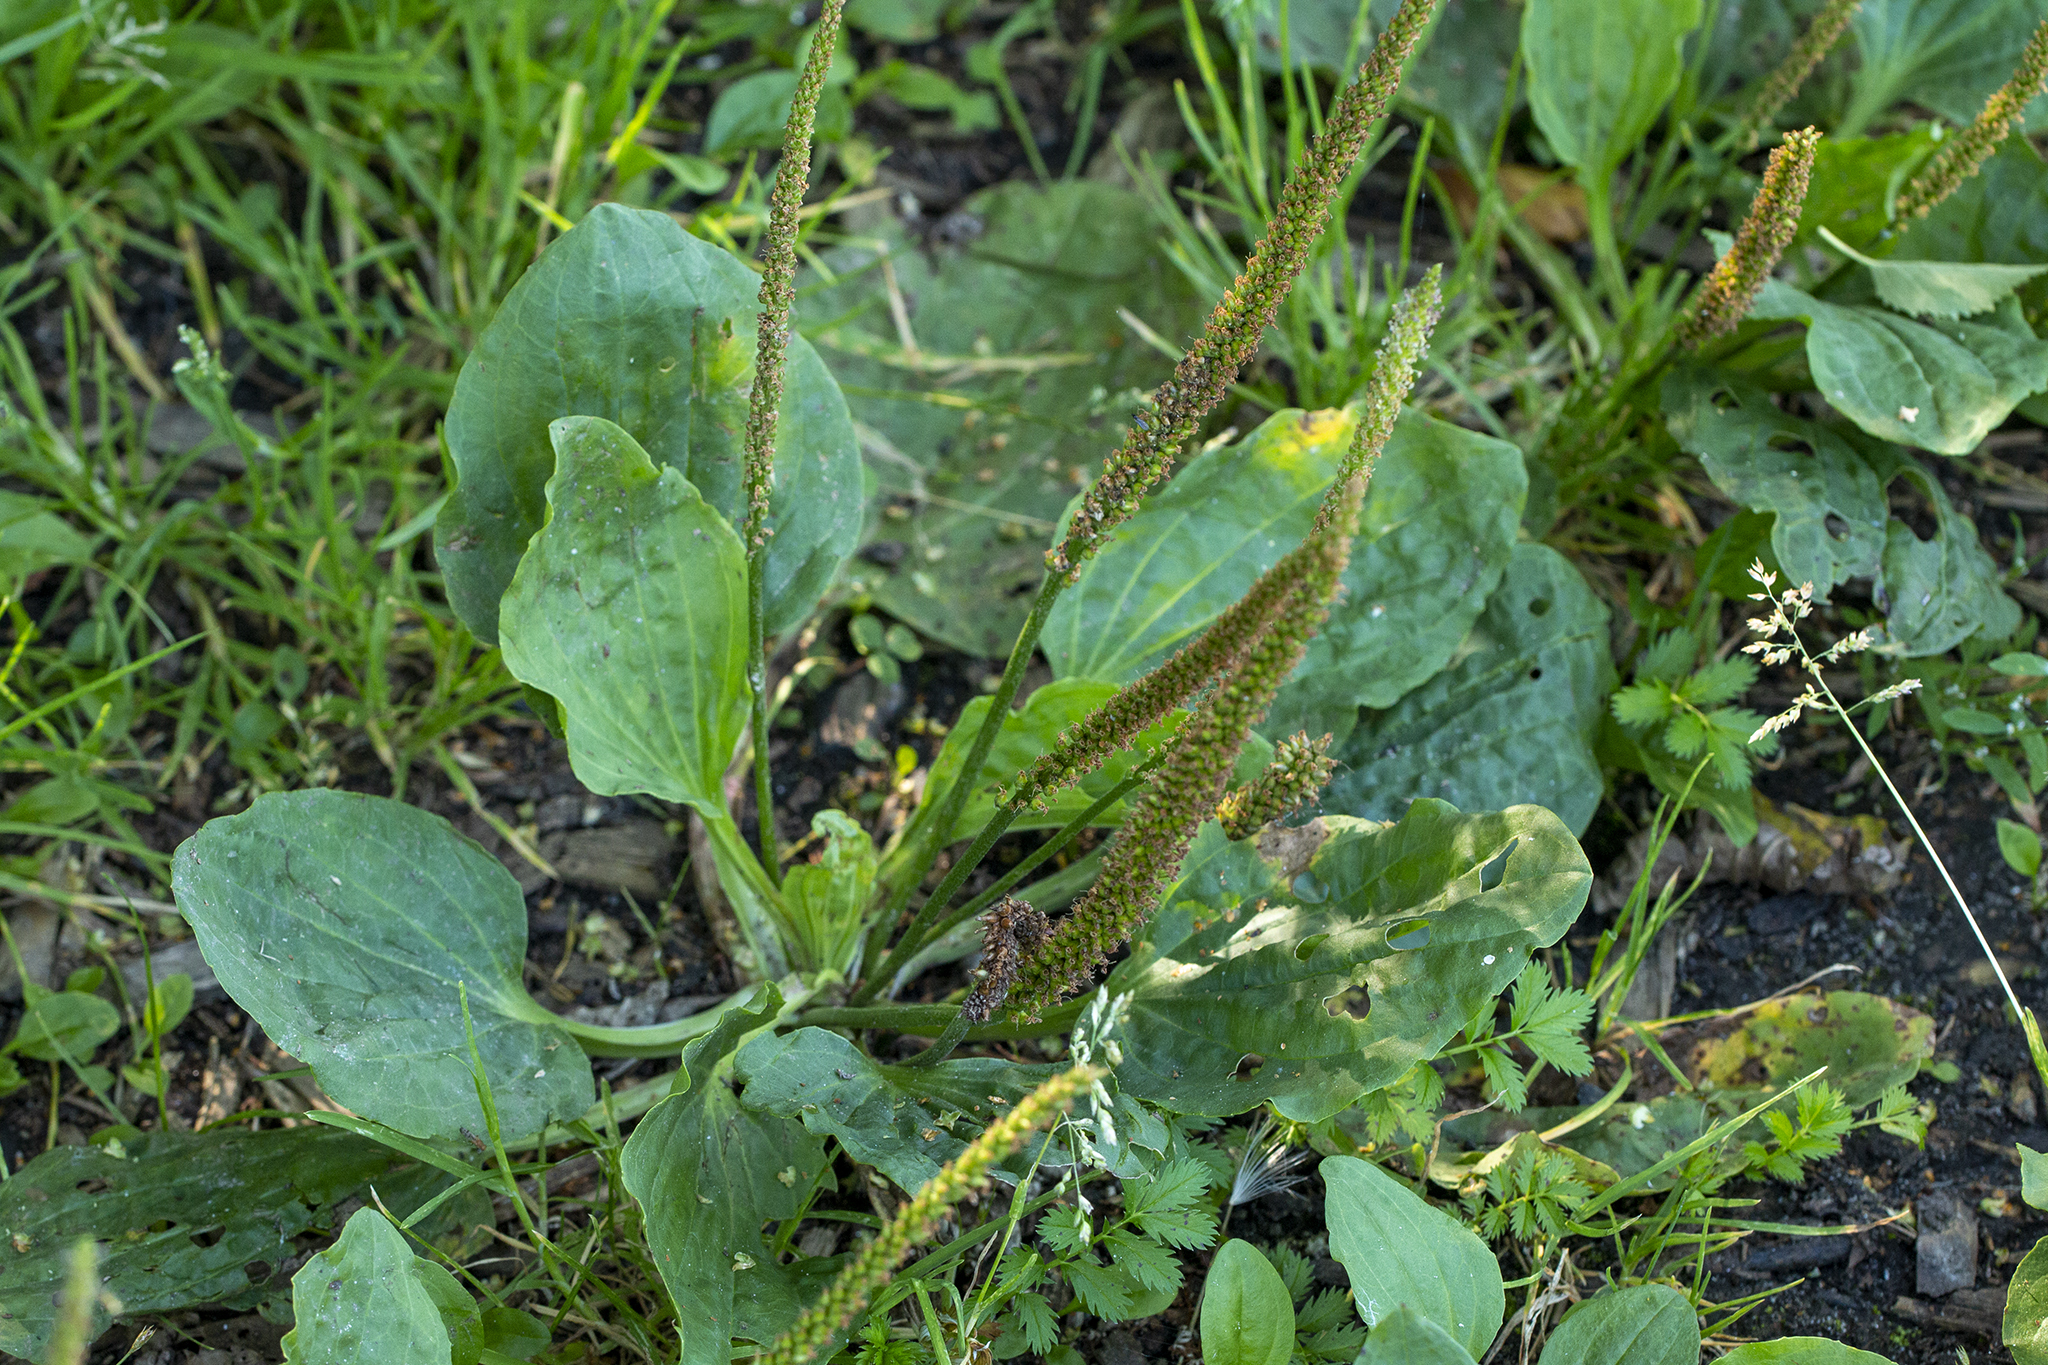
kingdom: Plantae
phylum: Tracheophyta
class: Magnoliopsida
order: Lamiales
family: Plantaginaceae
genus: Plantago
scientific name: Plantago major
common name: Common plantain
